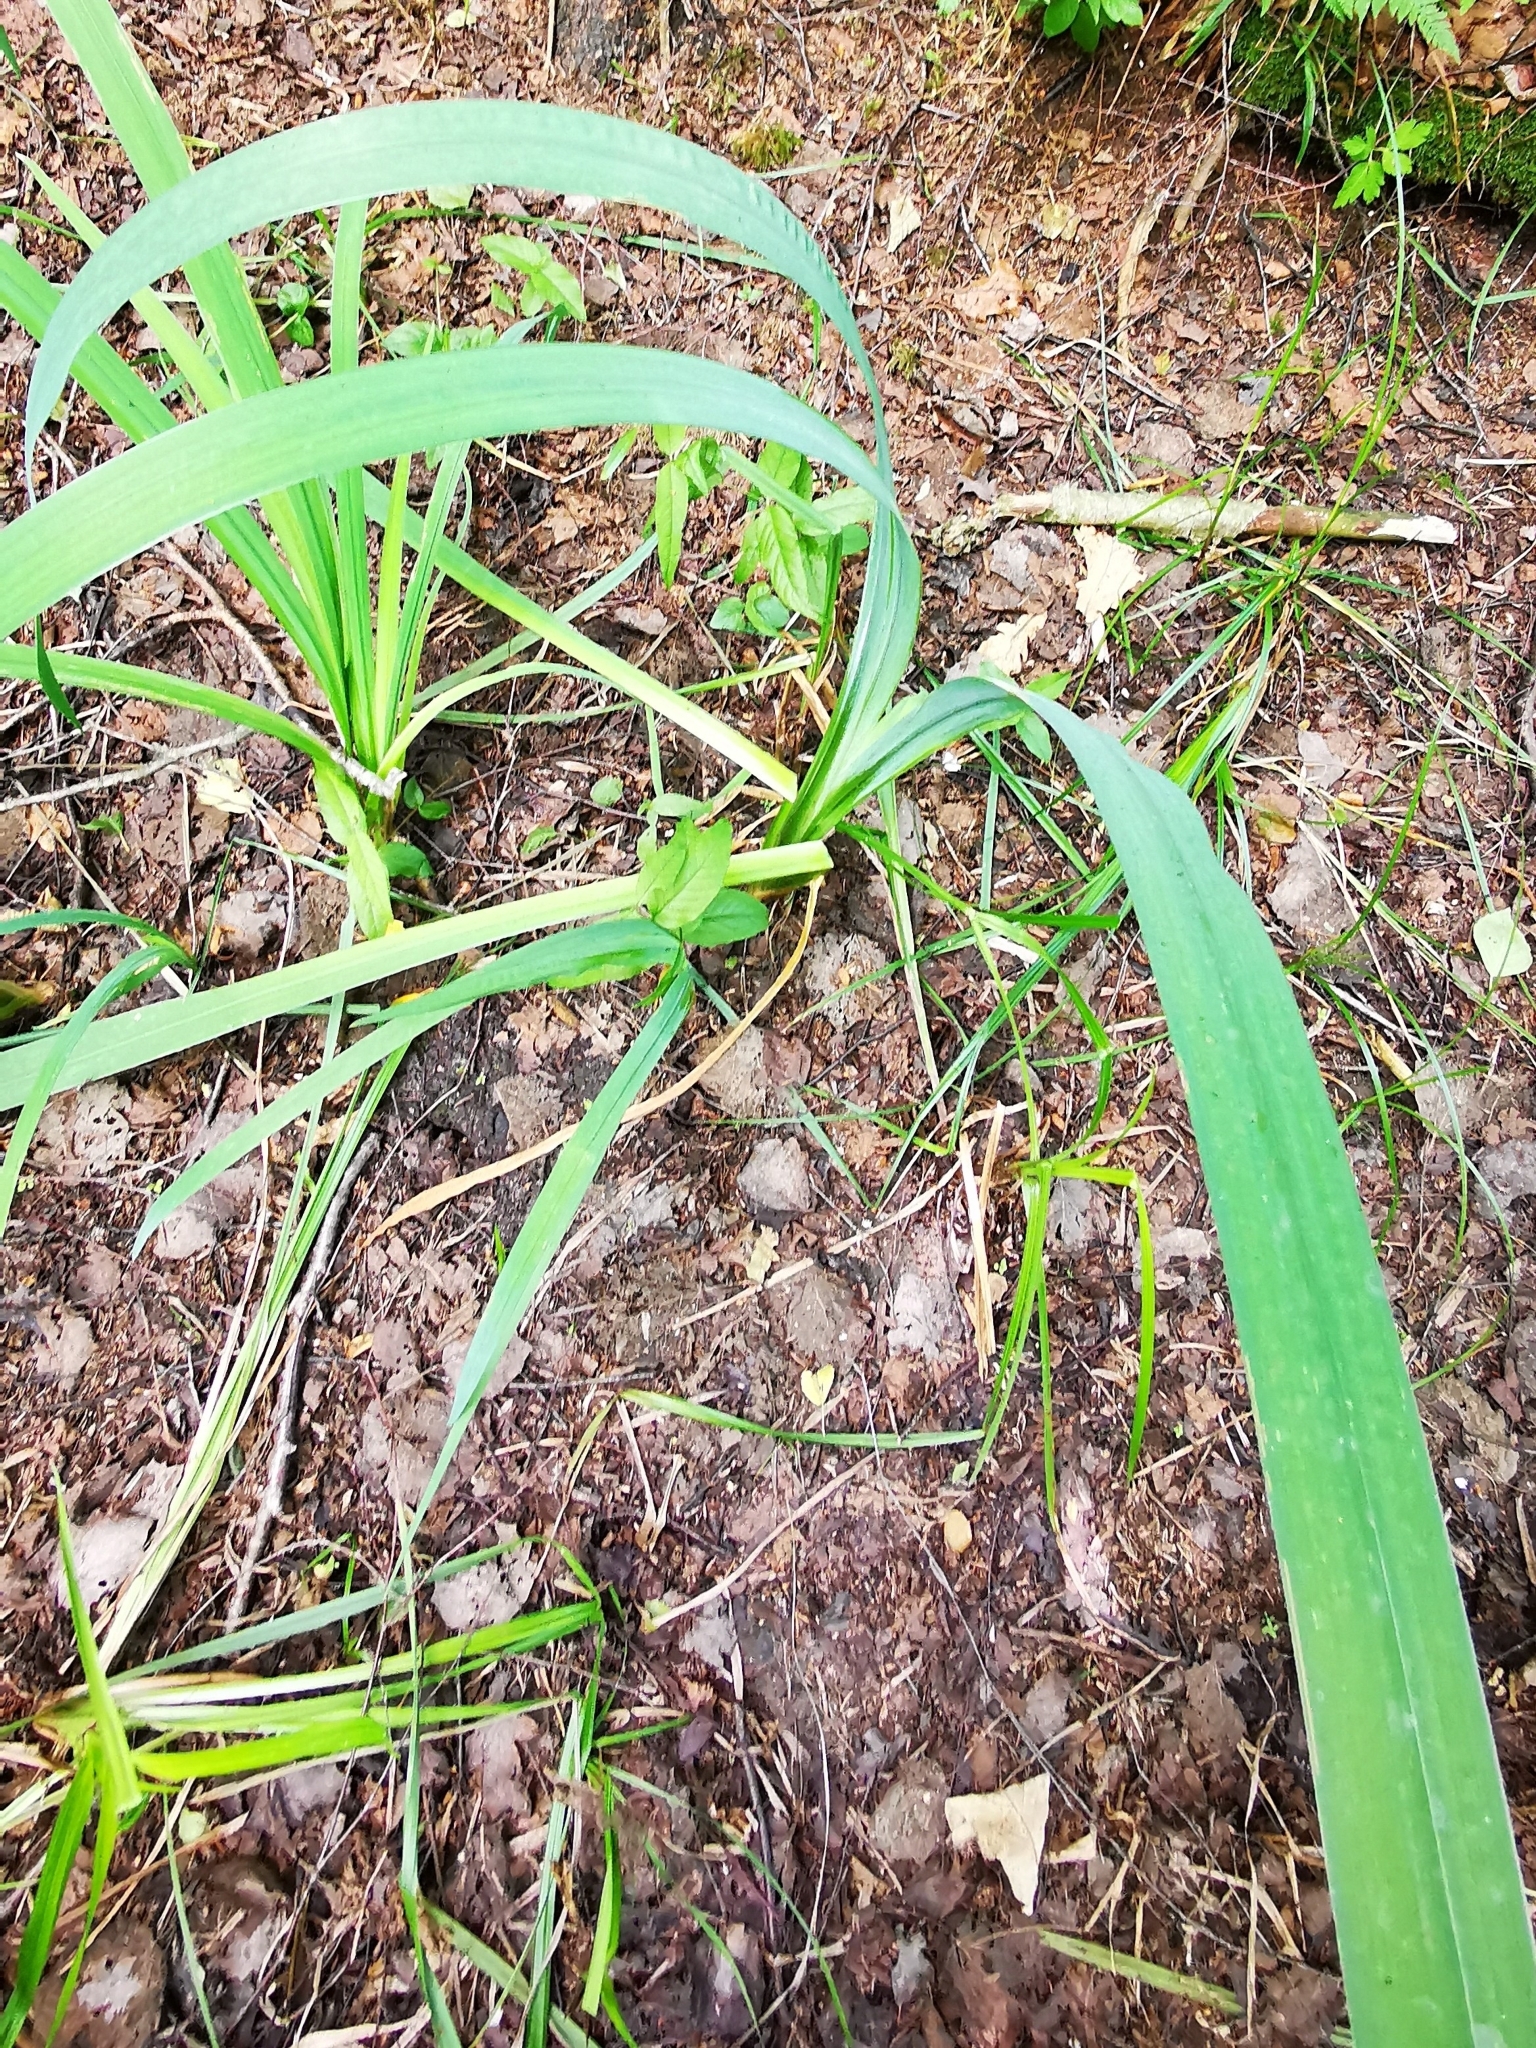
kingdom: Plantae
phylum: Tracheophyta
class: Liliopsida
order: Asparagales
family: Iridaceae
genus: Iris
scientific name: Iris pseudacorus
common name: Yellow flag
